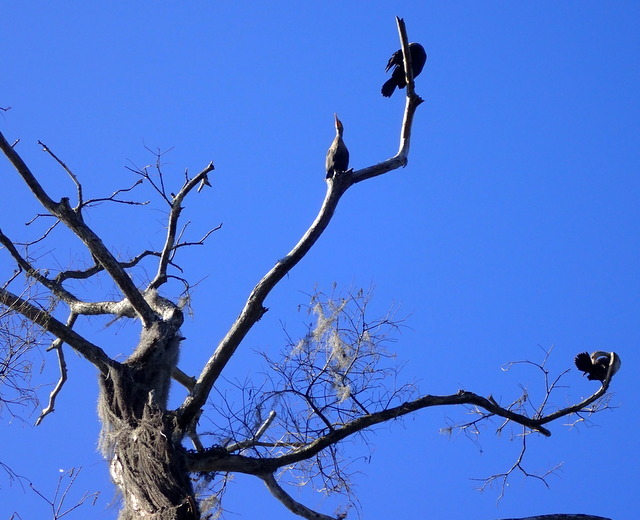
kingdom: Animalia
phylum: Chordata
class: Aves
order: Suliformes
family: Phalacrocoracidae
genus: Phalacrocorax
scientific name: Phalacrocorax auritus
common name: Double-crested cormorant
